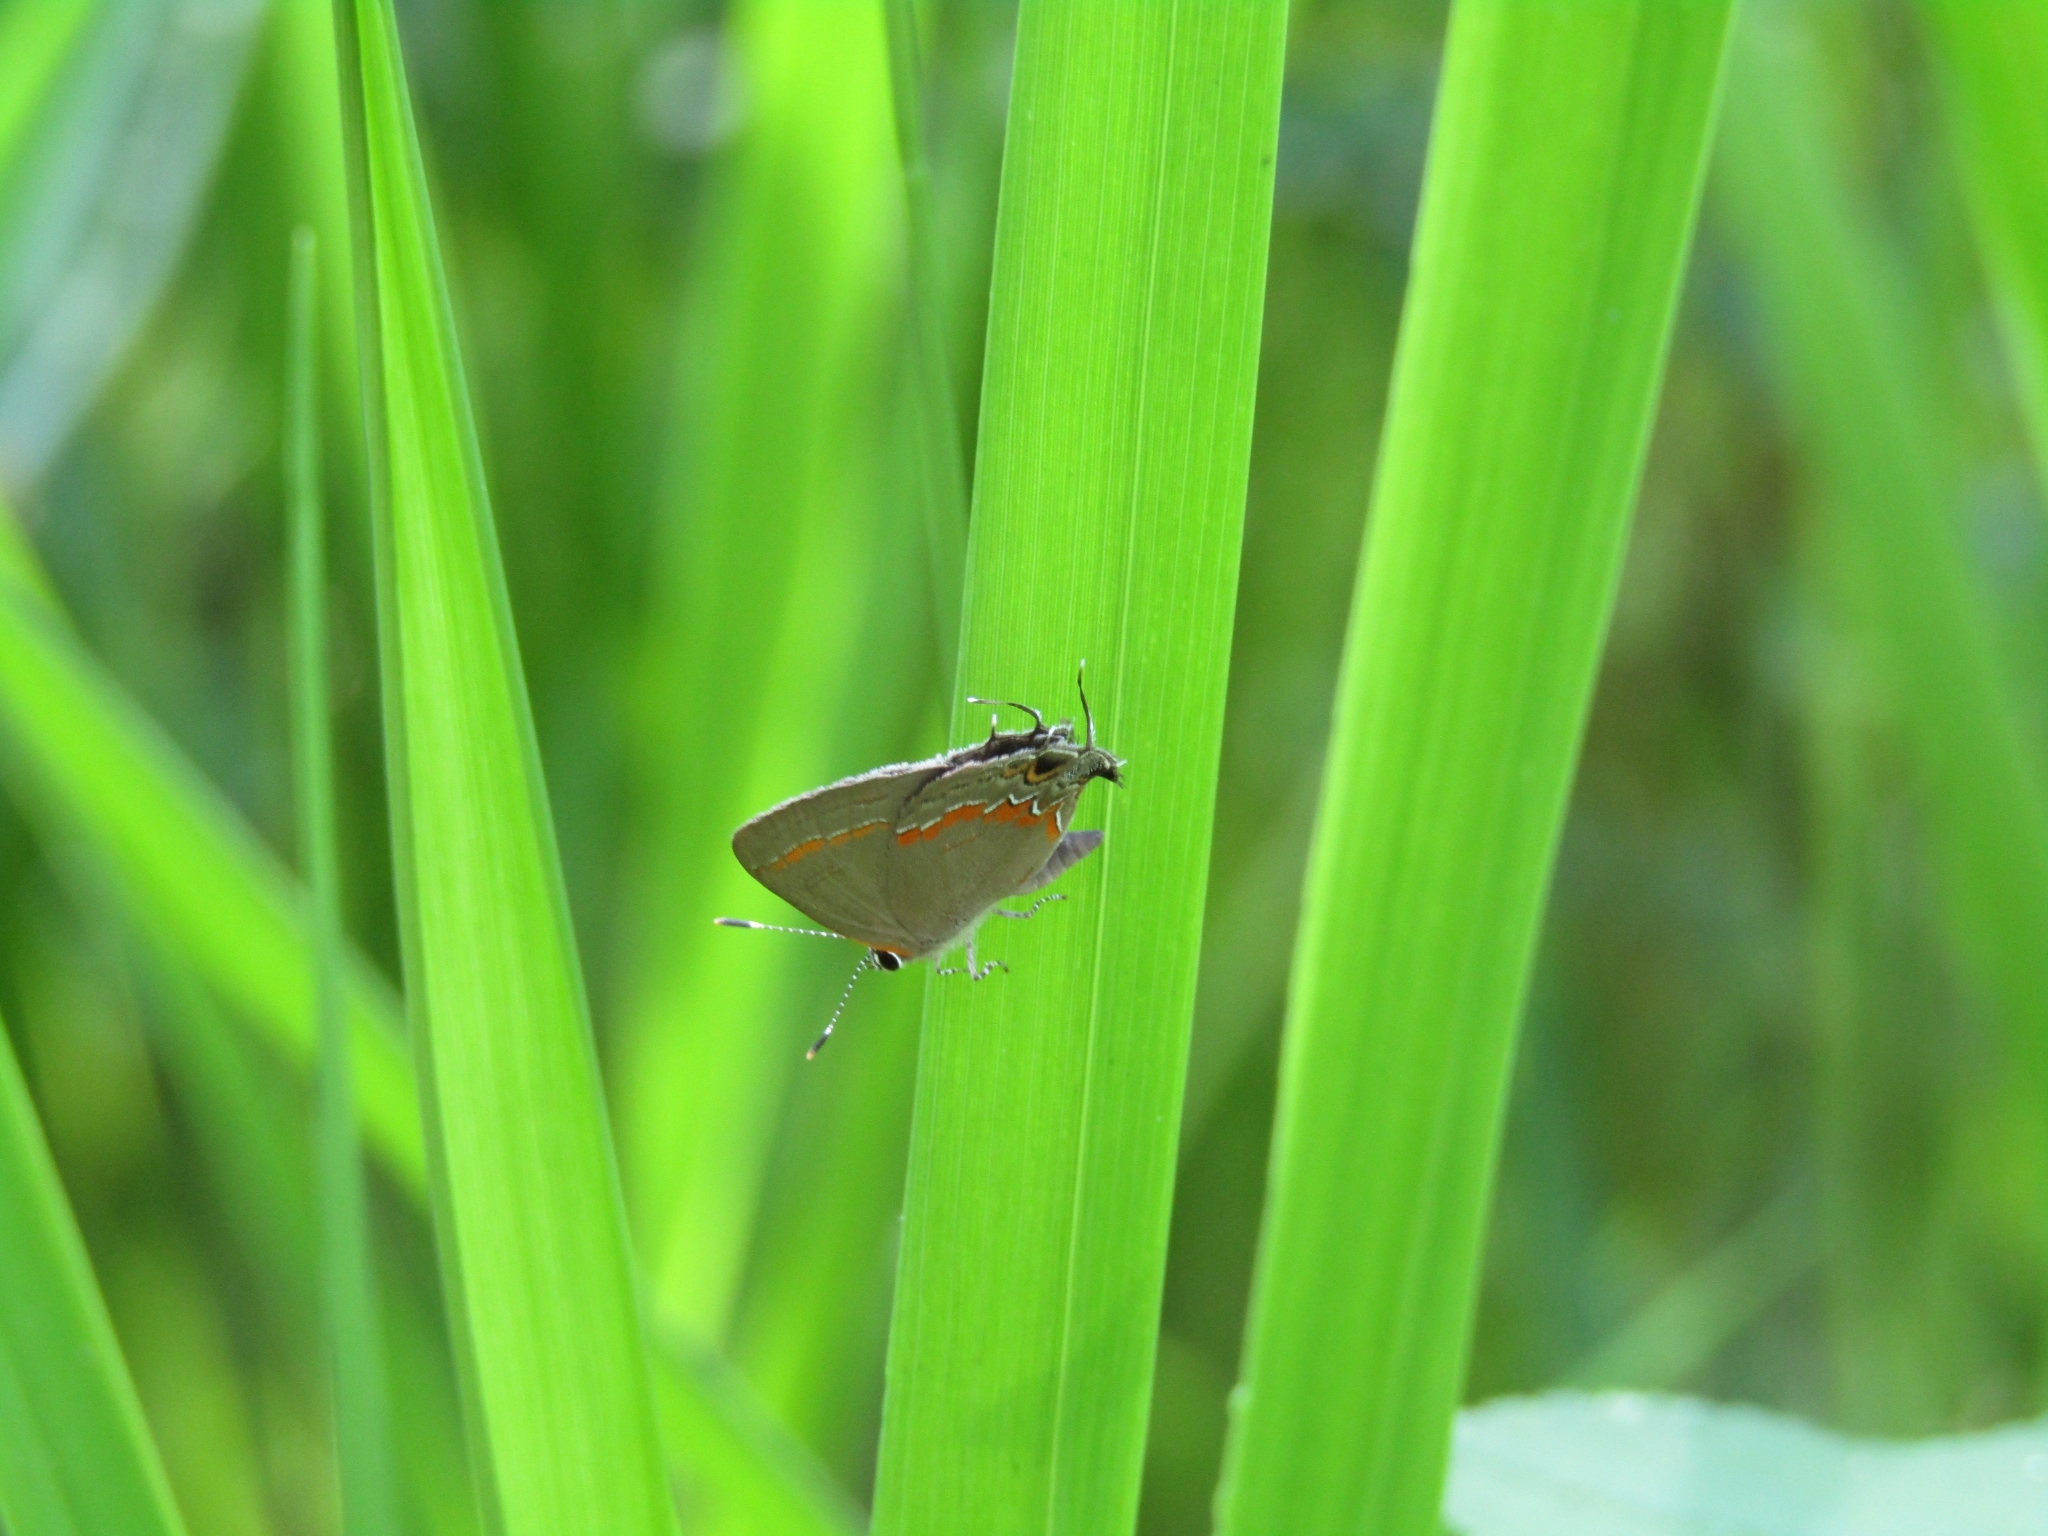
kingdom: Animalia
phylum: Arthropoda
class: Insecta
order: Lepidoptera
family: Lycaenidae
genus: Calycopis
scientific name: Calycopis cecrops
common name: Red-banded hairstreak
